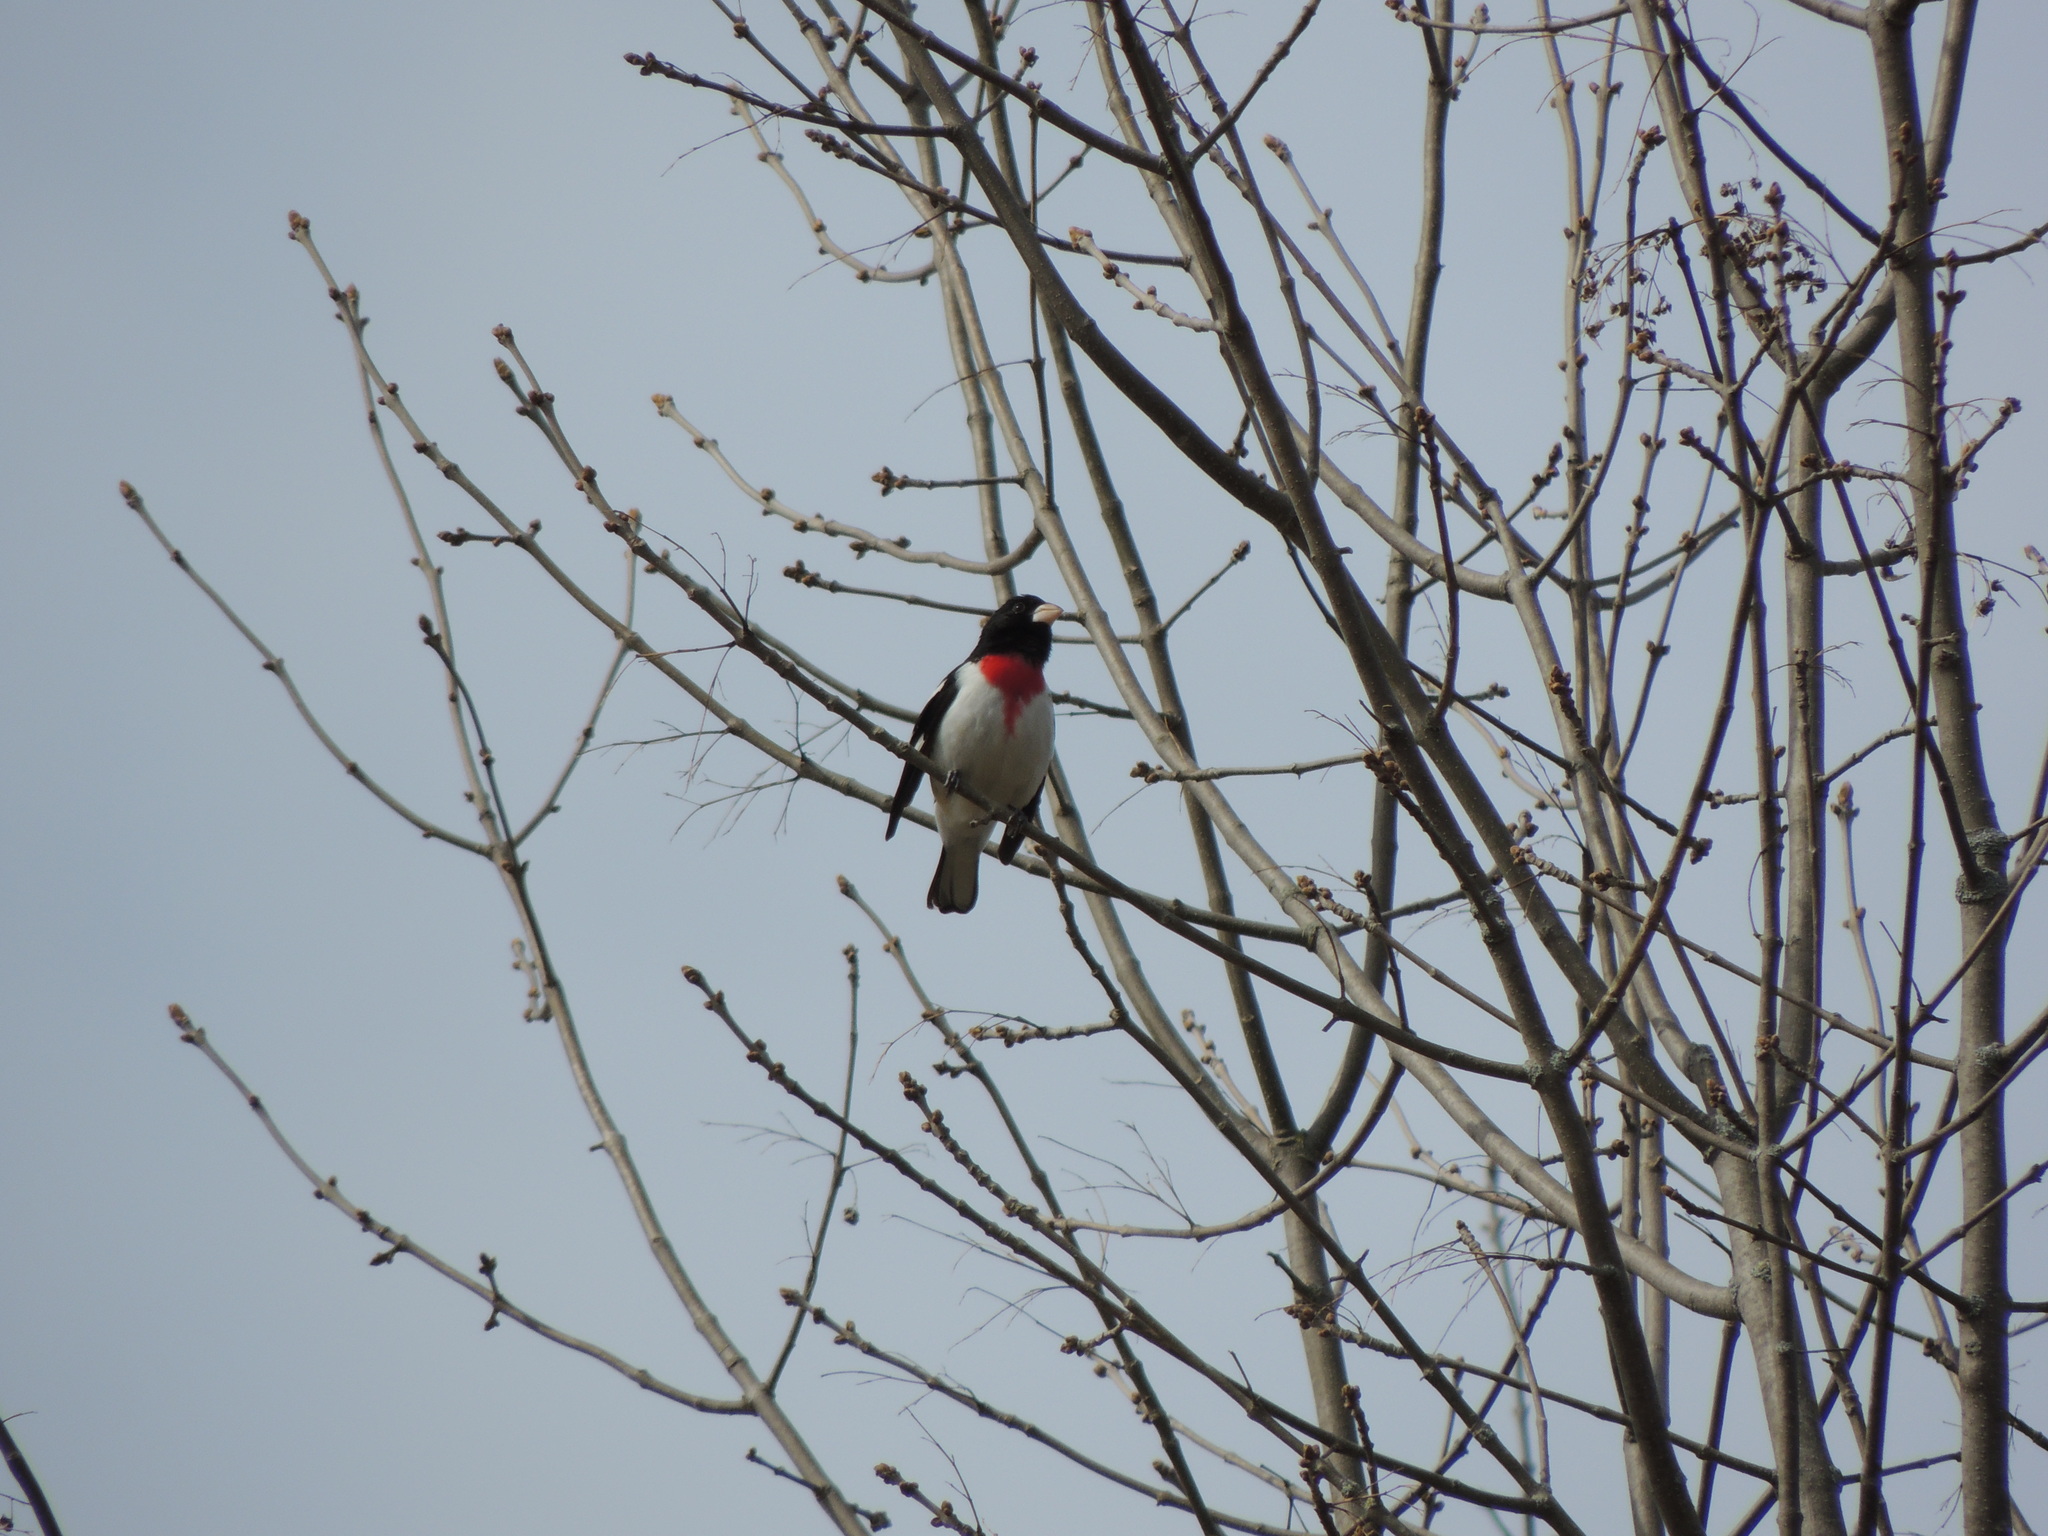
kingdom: Animalia
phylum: Chordata
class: Aves
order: Passeriformes
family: Cardinalidae
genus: Pheucticus
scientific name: Pheucticus ludovicianus
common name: Rose-breasted grosbeak
